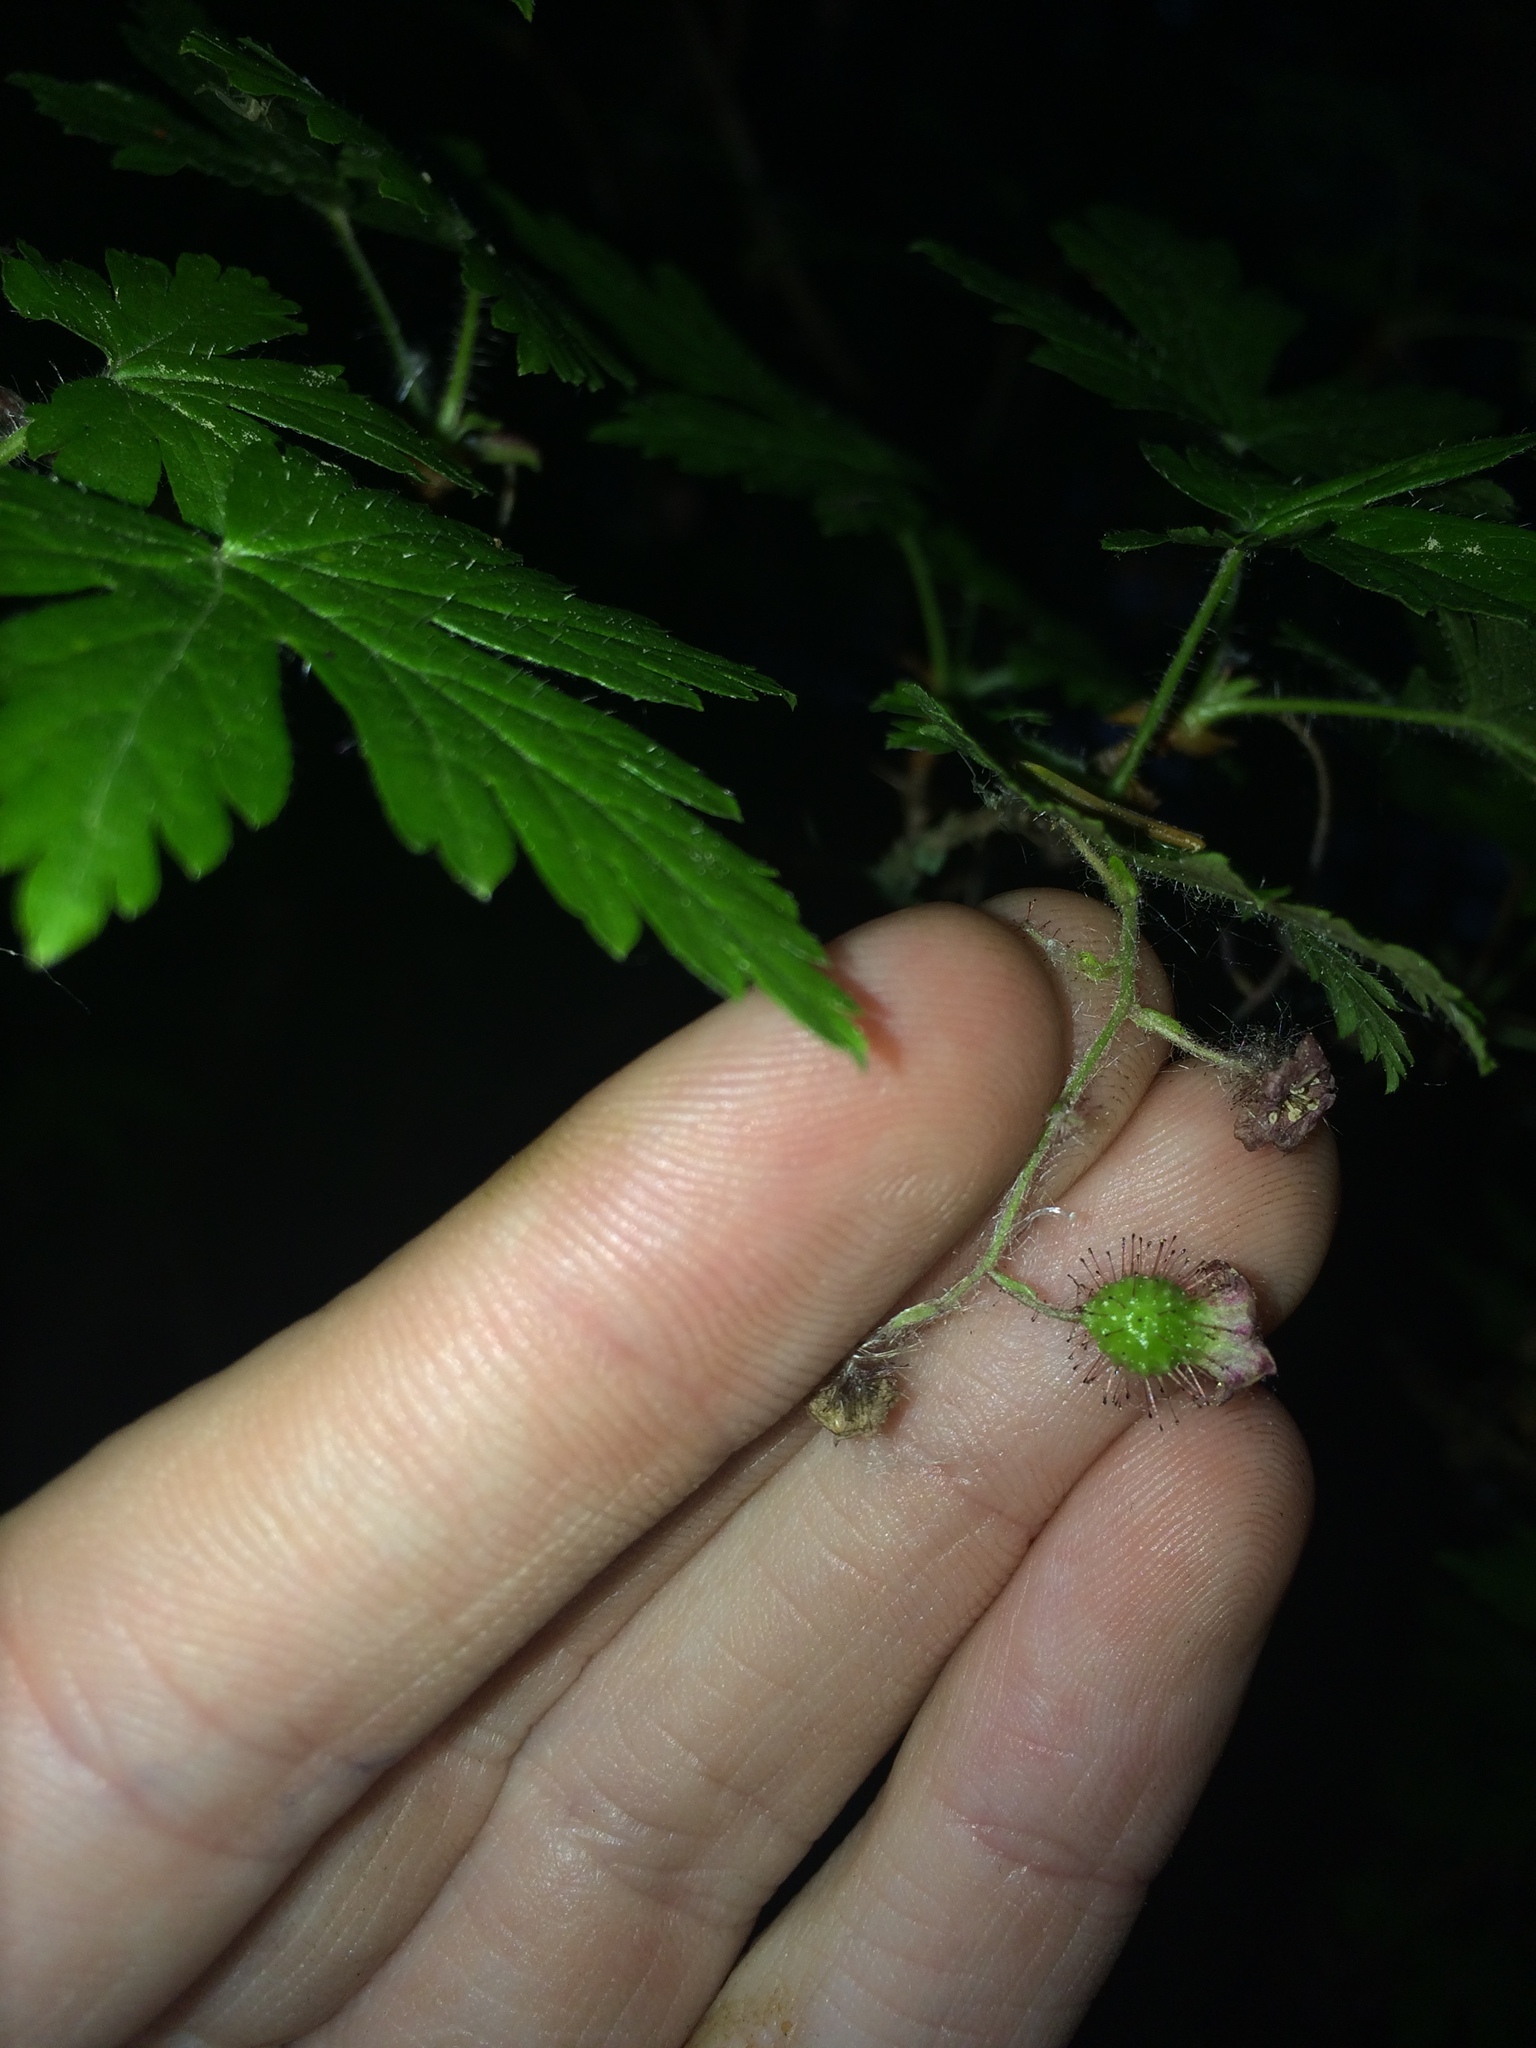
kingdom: Plantae
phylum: Tracheophyta
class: Magnoliopsida
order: Saxifragales
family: Grossulariaceae
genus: Ribes
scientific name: Ribes lacustre
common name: Black gooseberry
